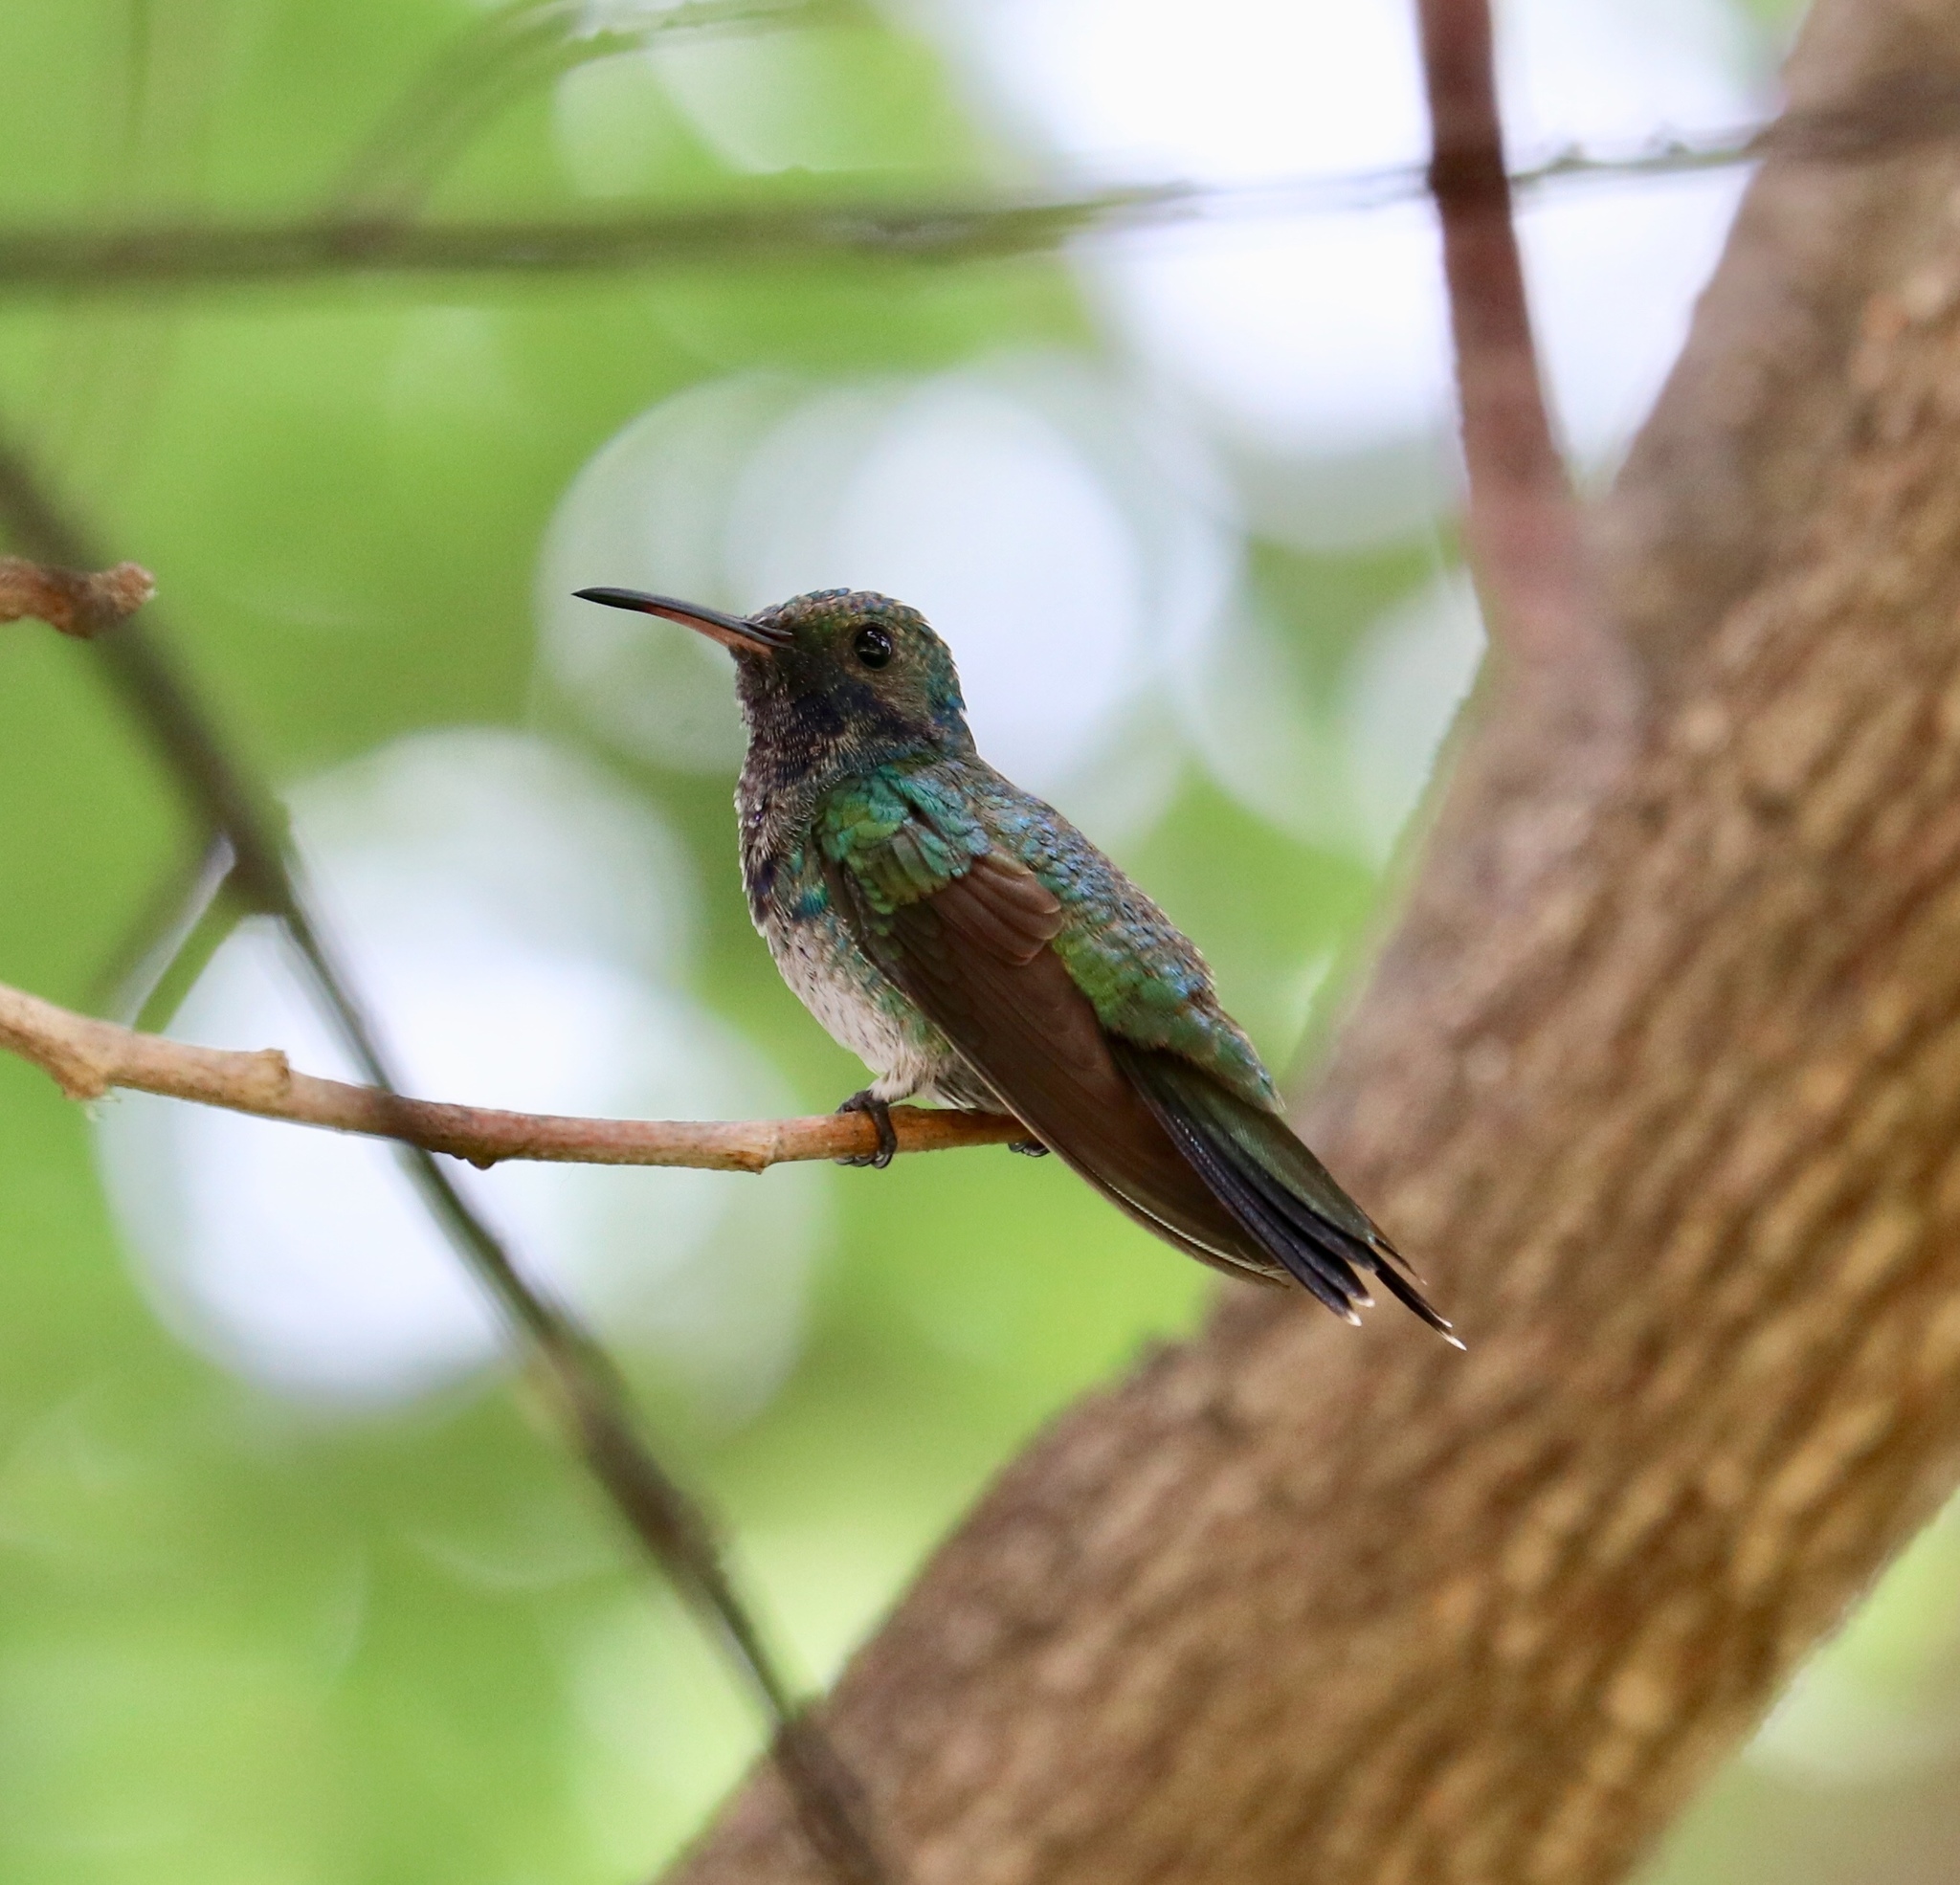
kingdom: Animalia
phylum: Chordata
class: Aves
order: Apodiformes
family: Trochilidae
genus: Chrysuronia
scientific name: Chrysuronia coeruleogularis
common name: Sapphire-throated hummingbird
